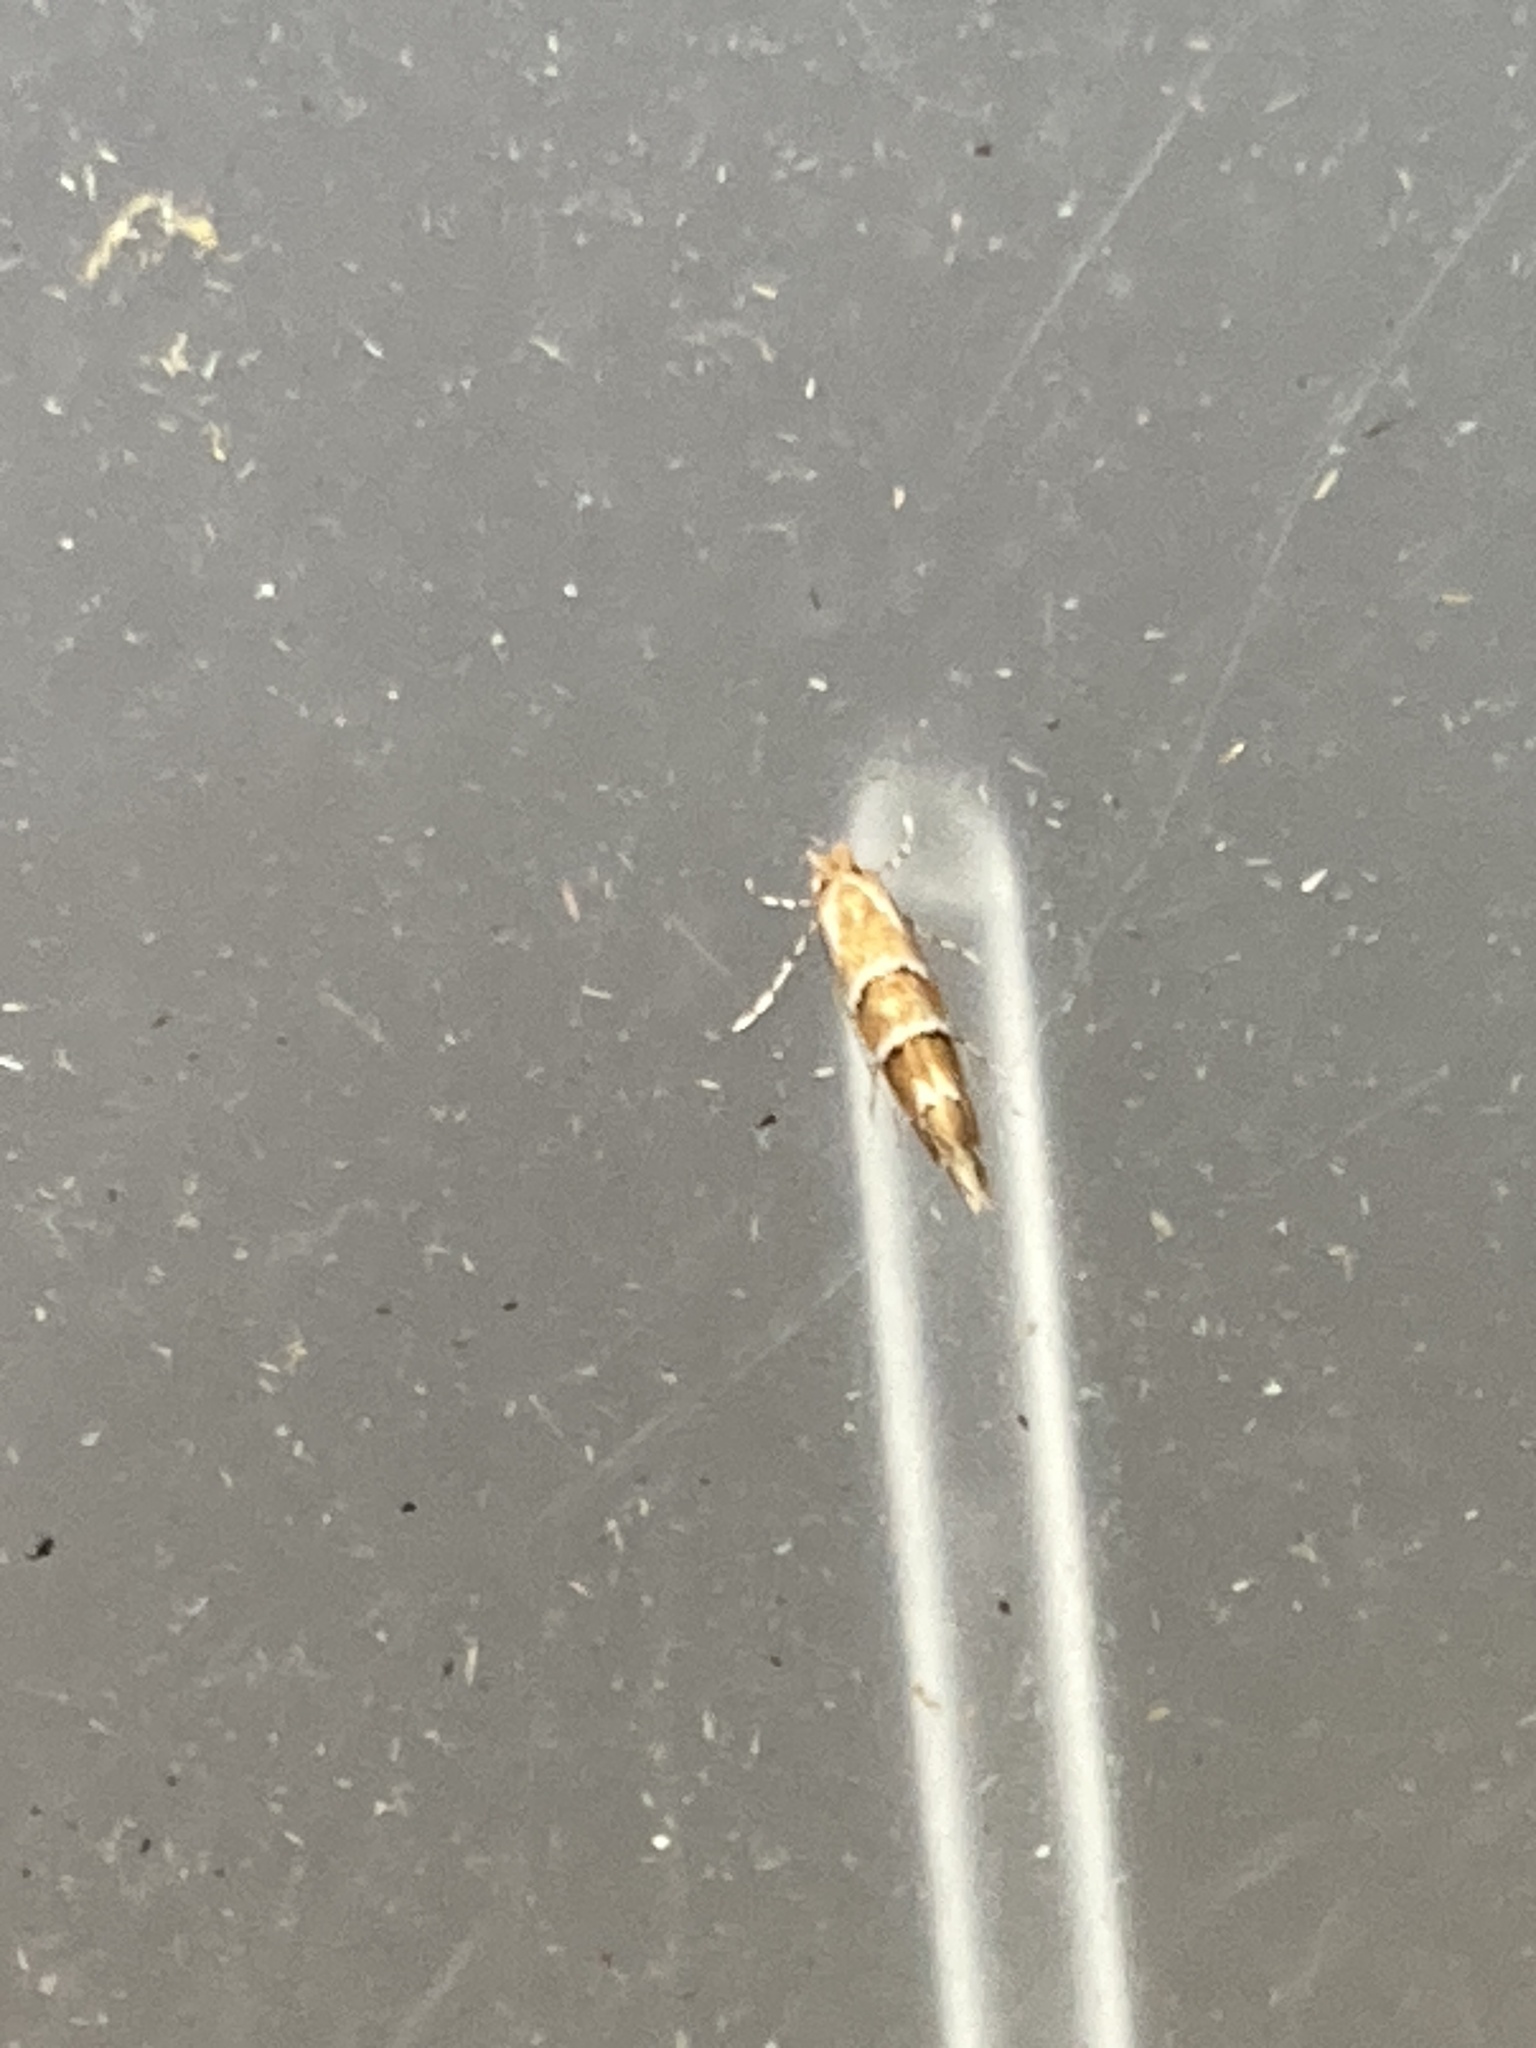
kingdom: Animalia
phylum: Arthropoda
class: Insecta
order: Lepidoptera
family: Gracillariidae
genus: Cameraria
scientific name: Cameraria ohridella
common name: Horse-chestnut leaf-miner
